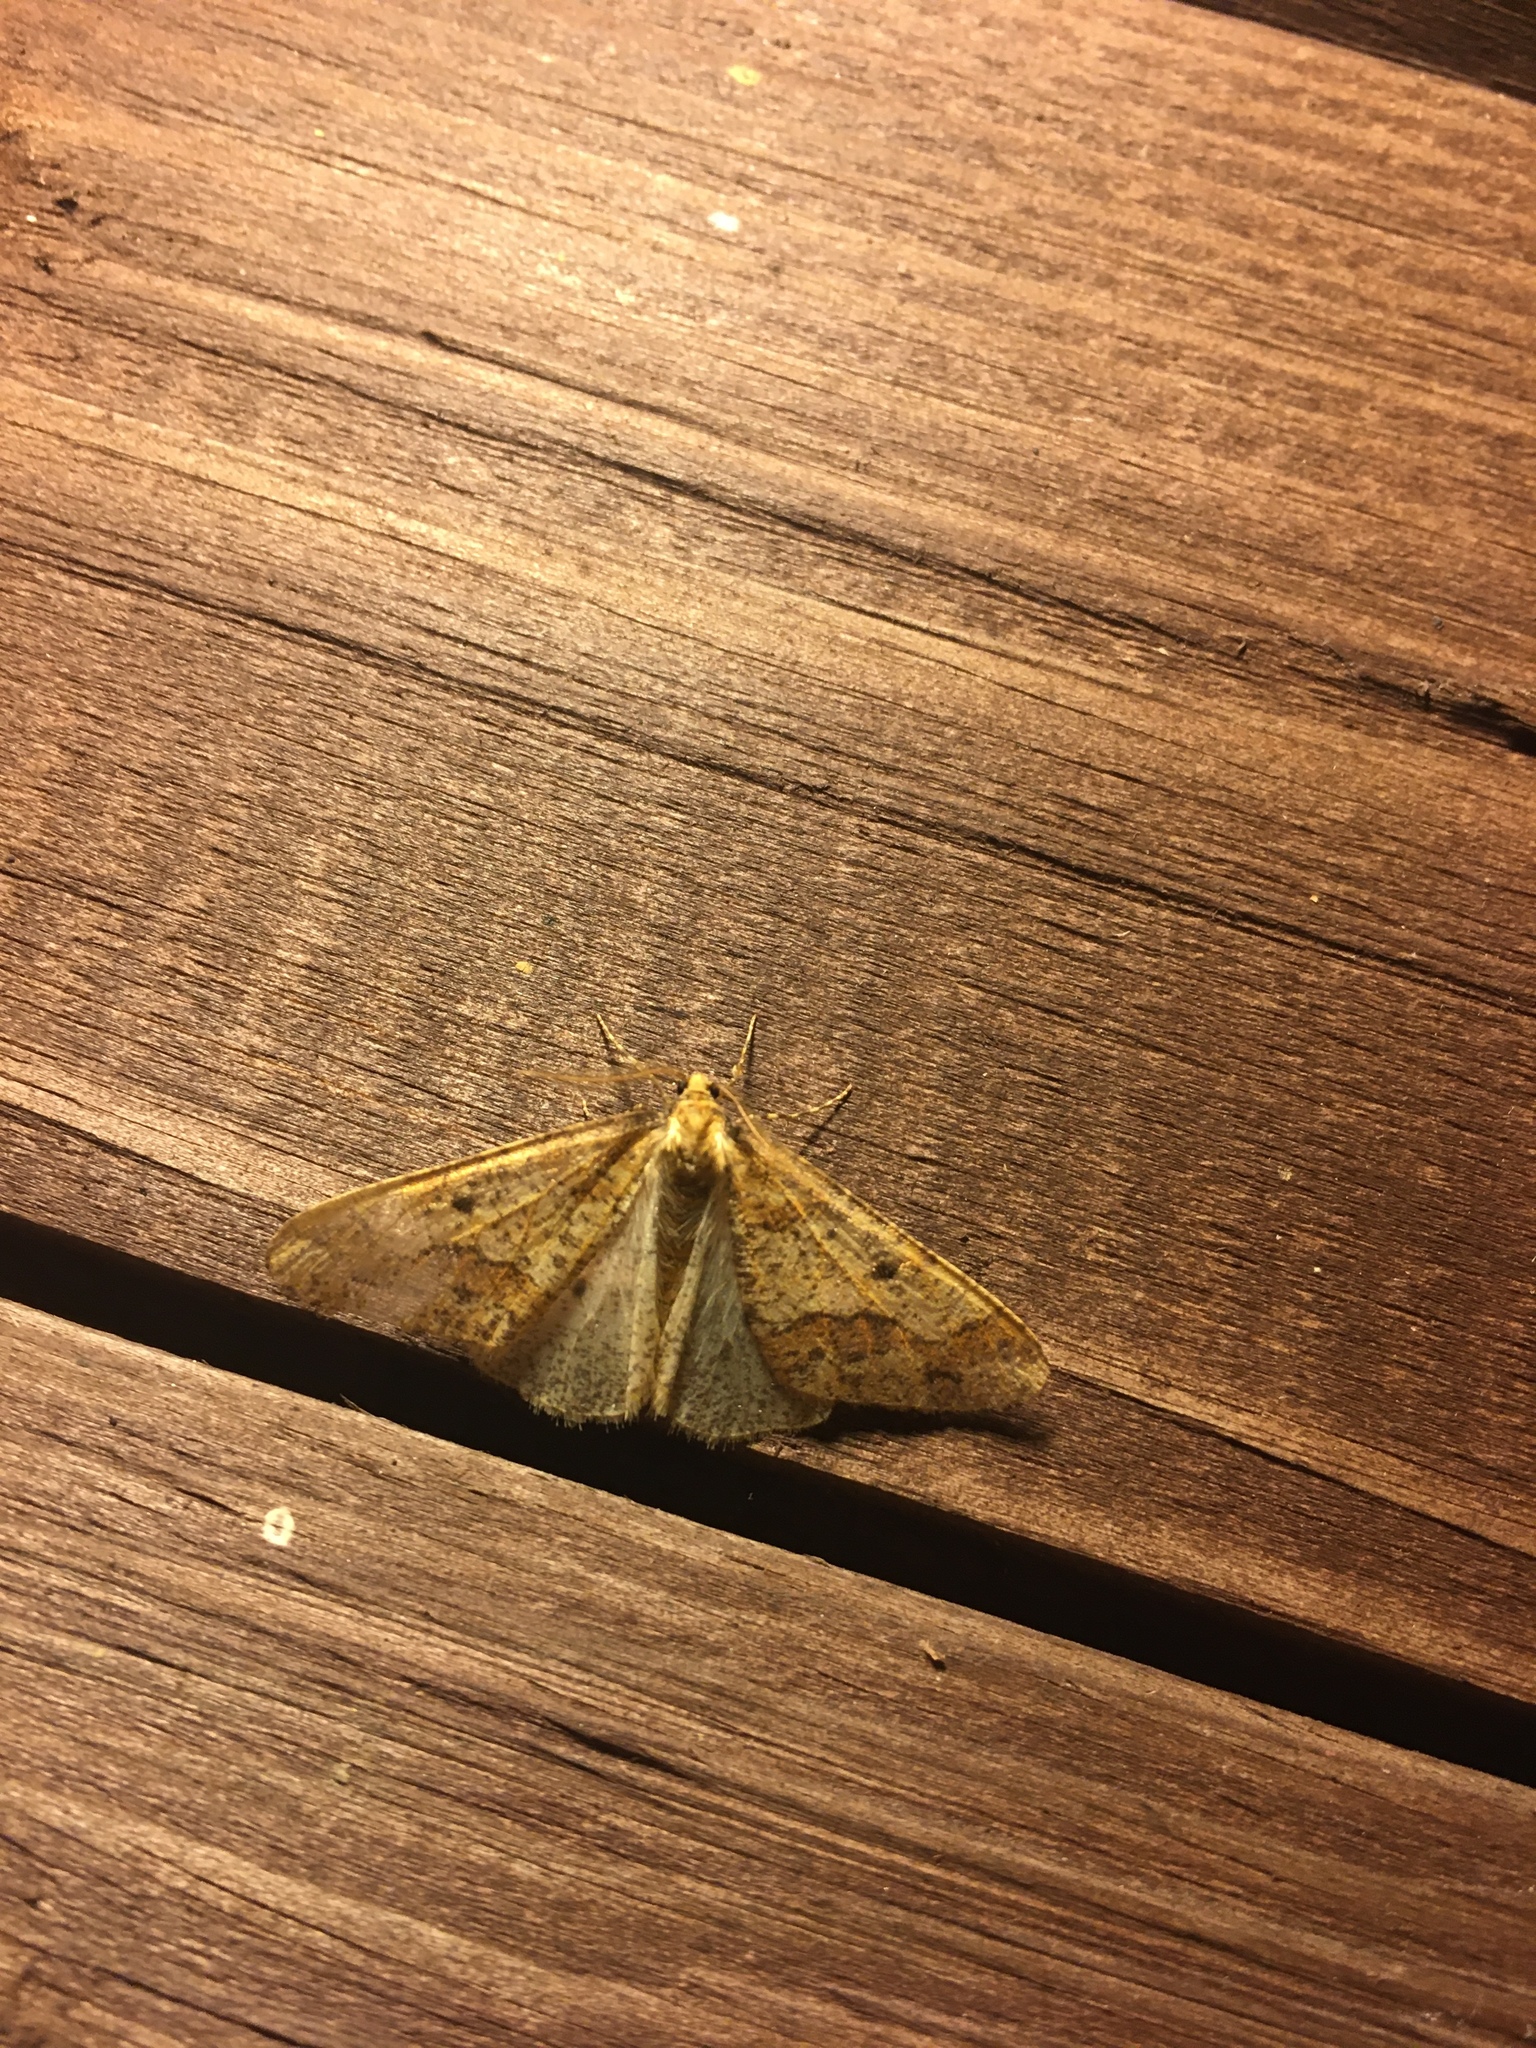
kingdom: Animalia
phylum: Arthropoda
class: Insecta
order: Lepidoptera
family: Geometridae
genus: Erannis
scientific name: Erannis defoliaria
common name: Mottled umber
